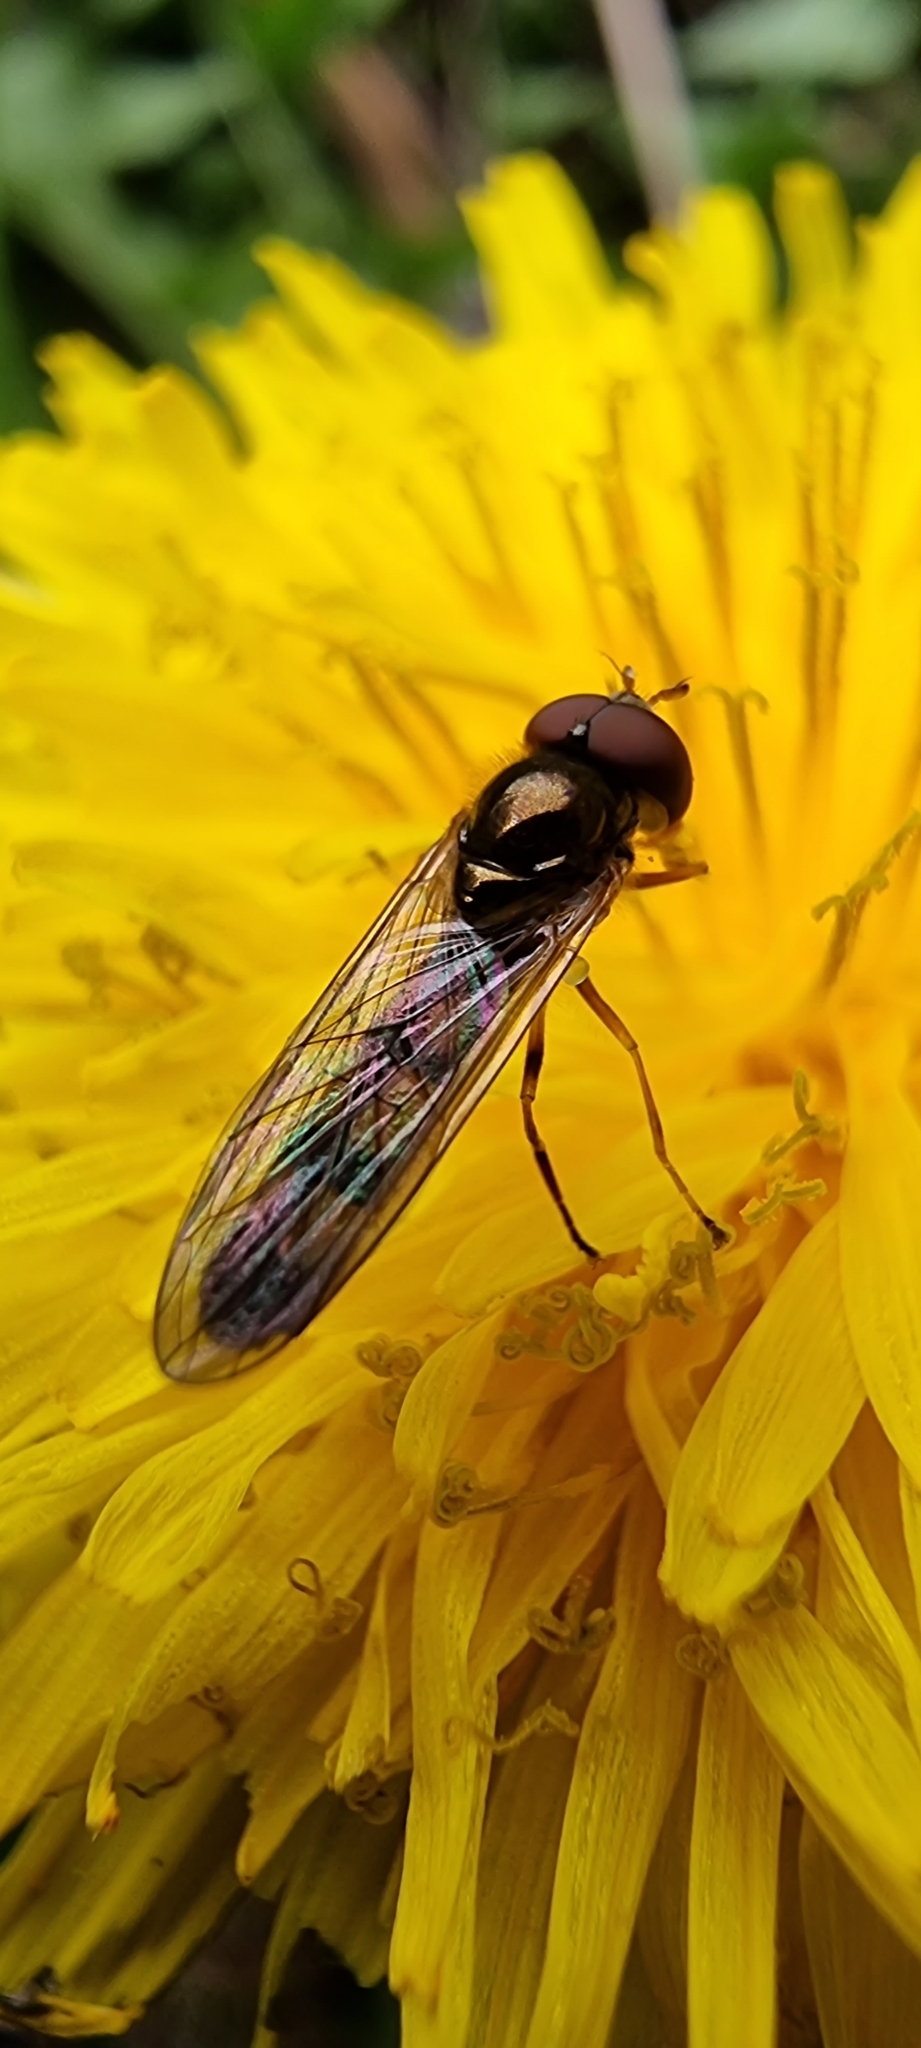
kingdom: Animalia
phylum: Arthropoda
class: Insecta
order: Diptera
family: Syrphidae
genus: Melanostoma
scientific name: Melanostoma scalare
